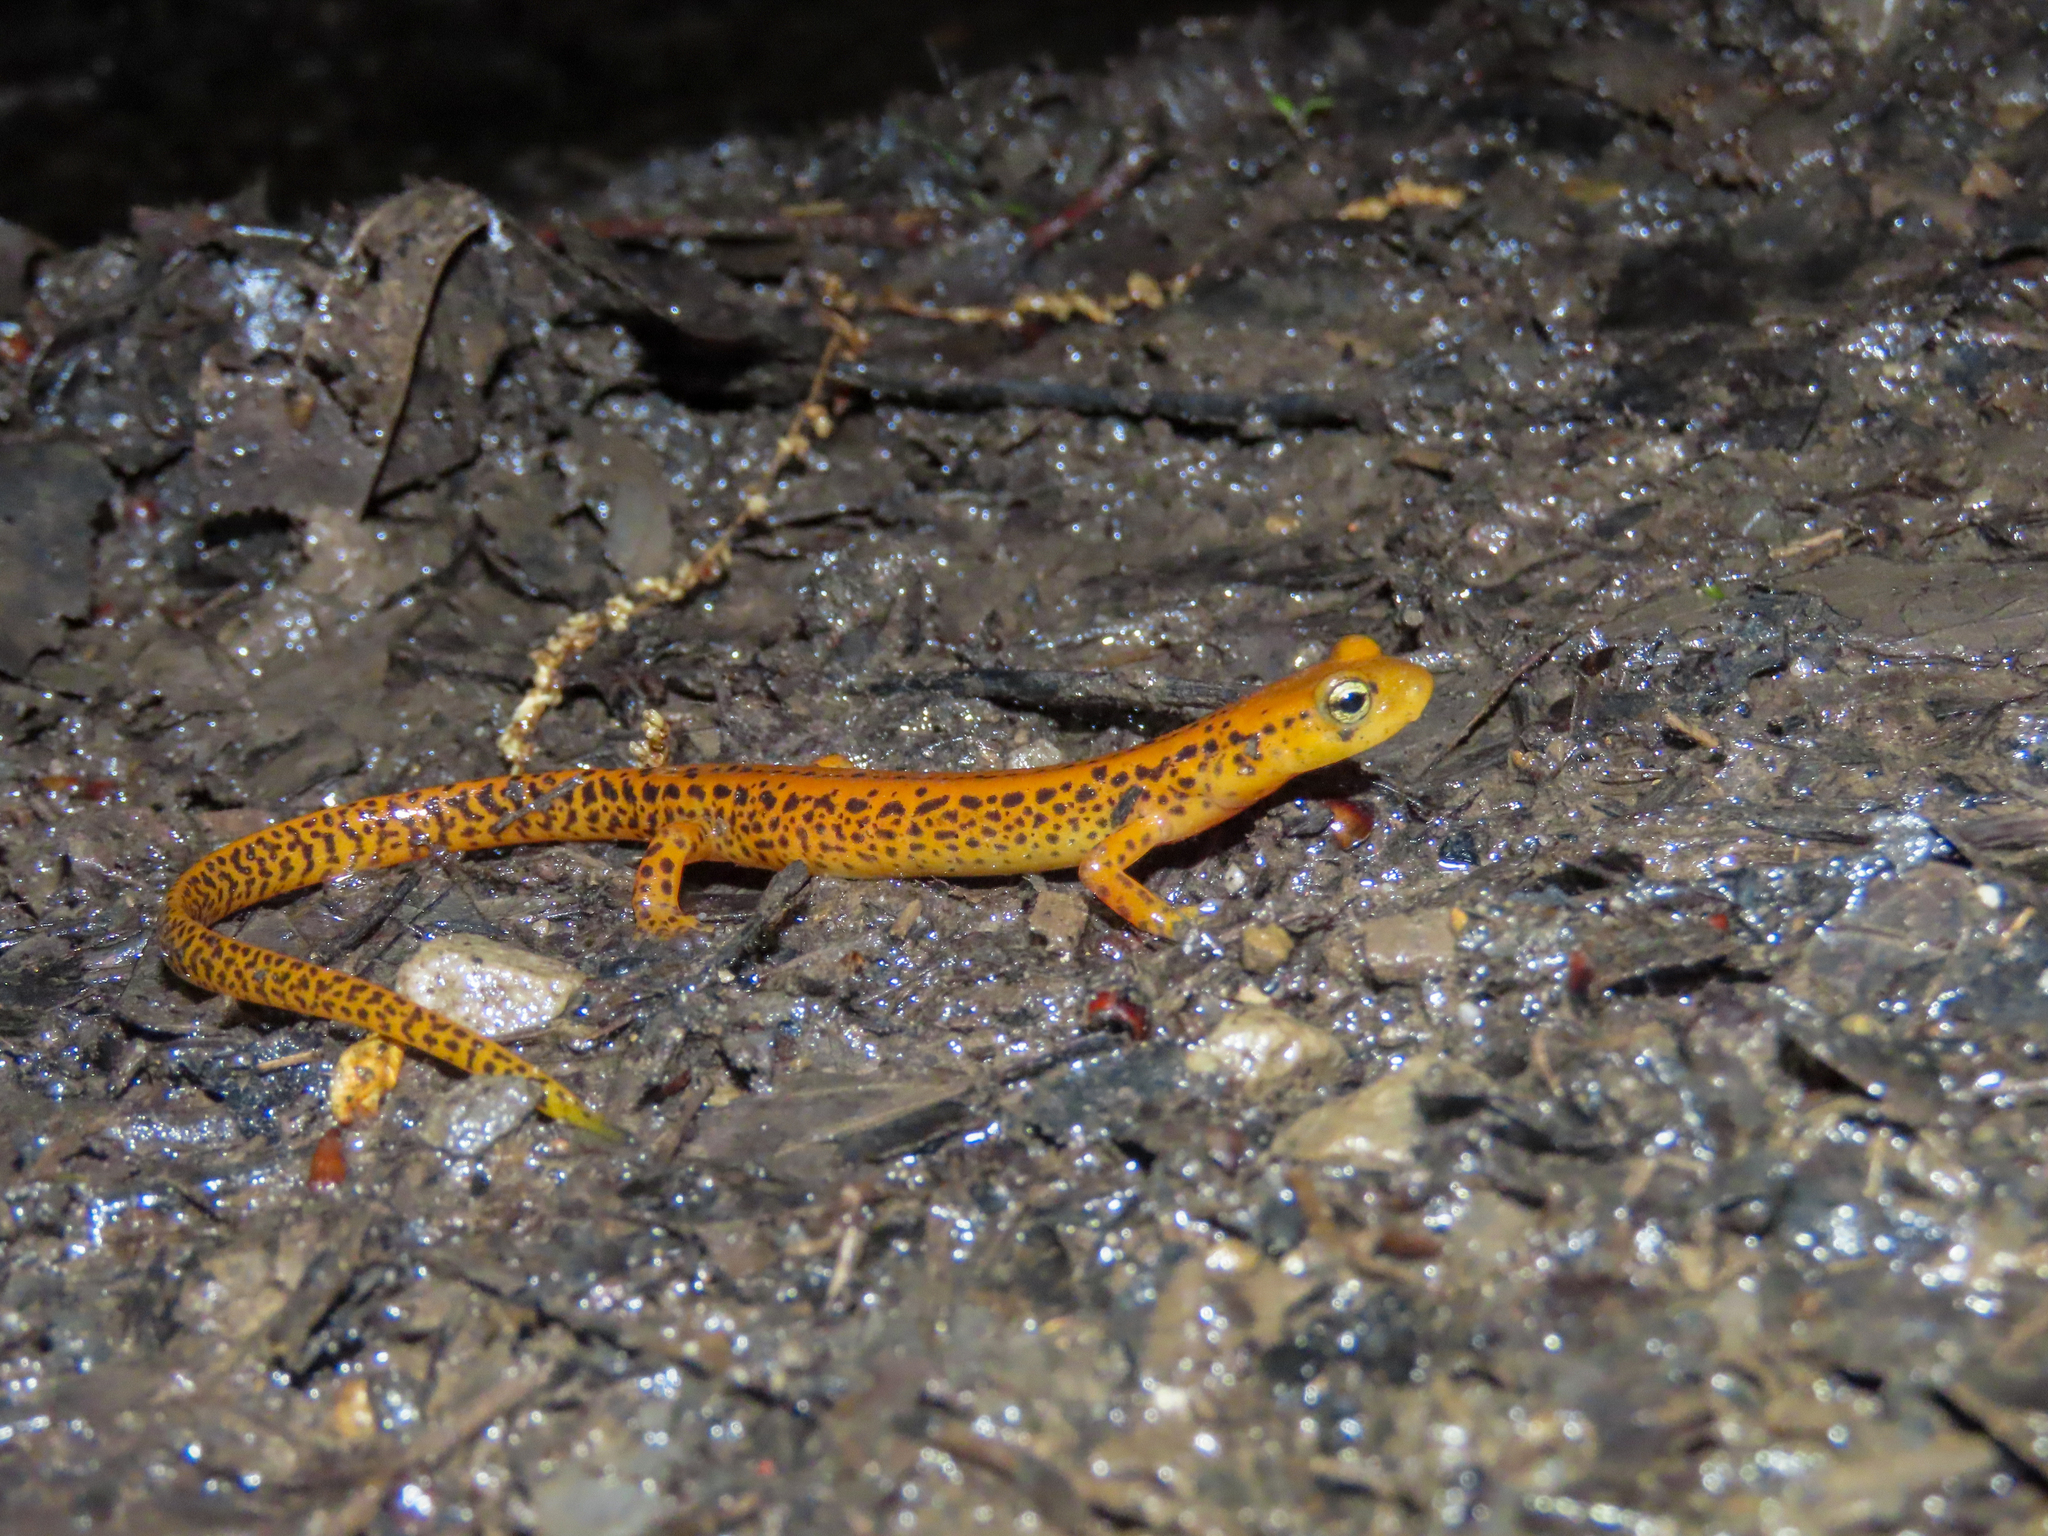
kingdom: Animalia
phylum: Chordata
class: Amphibia
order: Caudata
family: Plethodontidae
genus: Eurycea
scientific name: Eurycea longicauda
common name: Long-tailed salamander
